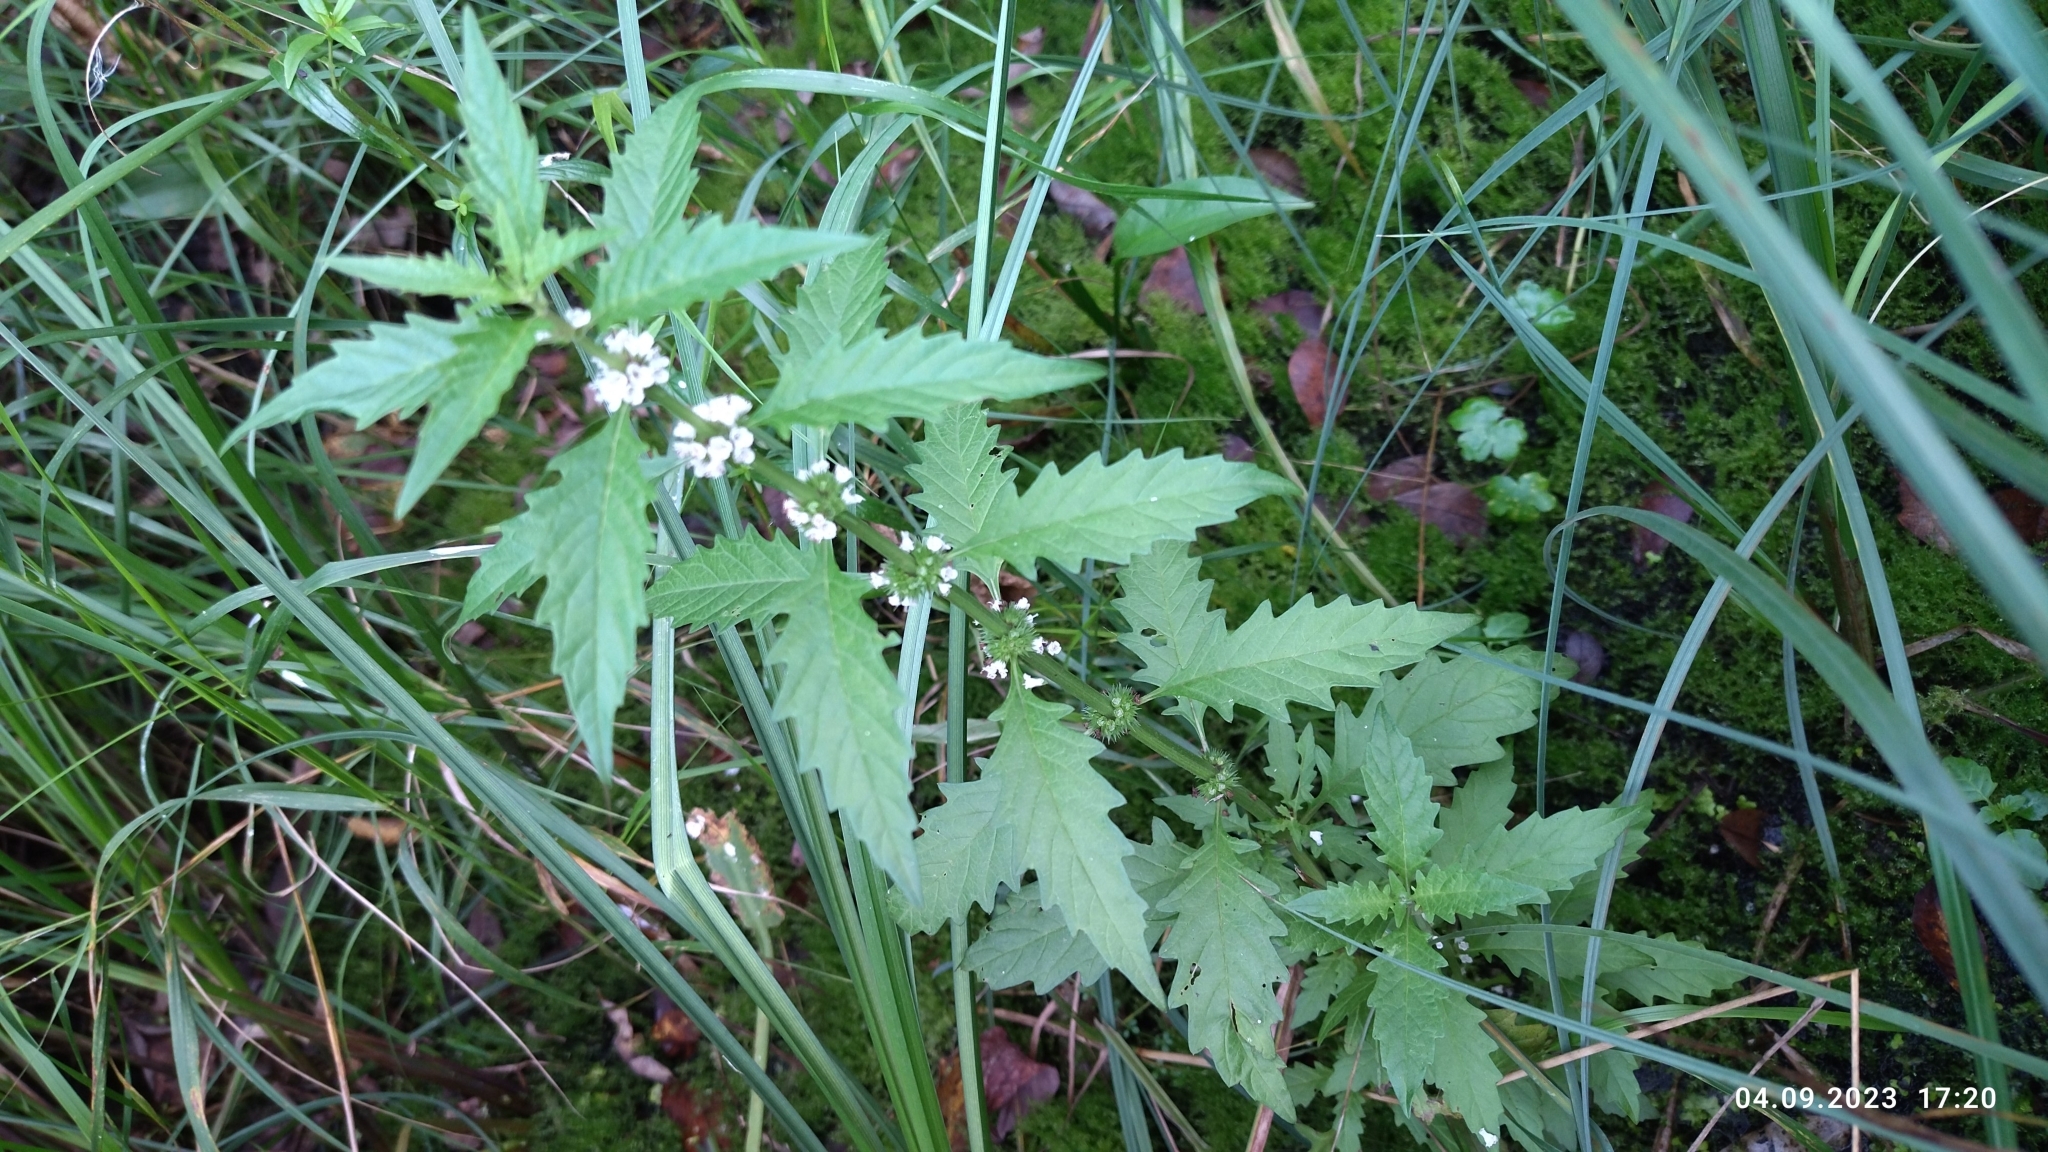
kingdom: Plantae
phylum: Tracheophyta
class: Magnoliopsida
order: Lamiales
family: Lamiaceae
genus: Lycopus
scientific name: Lycopus europaeus
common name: European bugleweed
